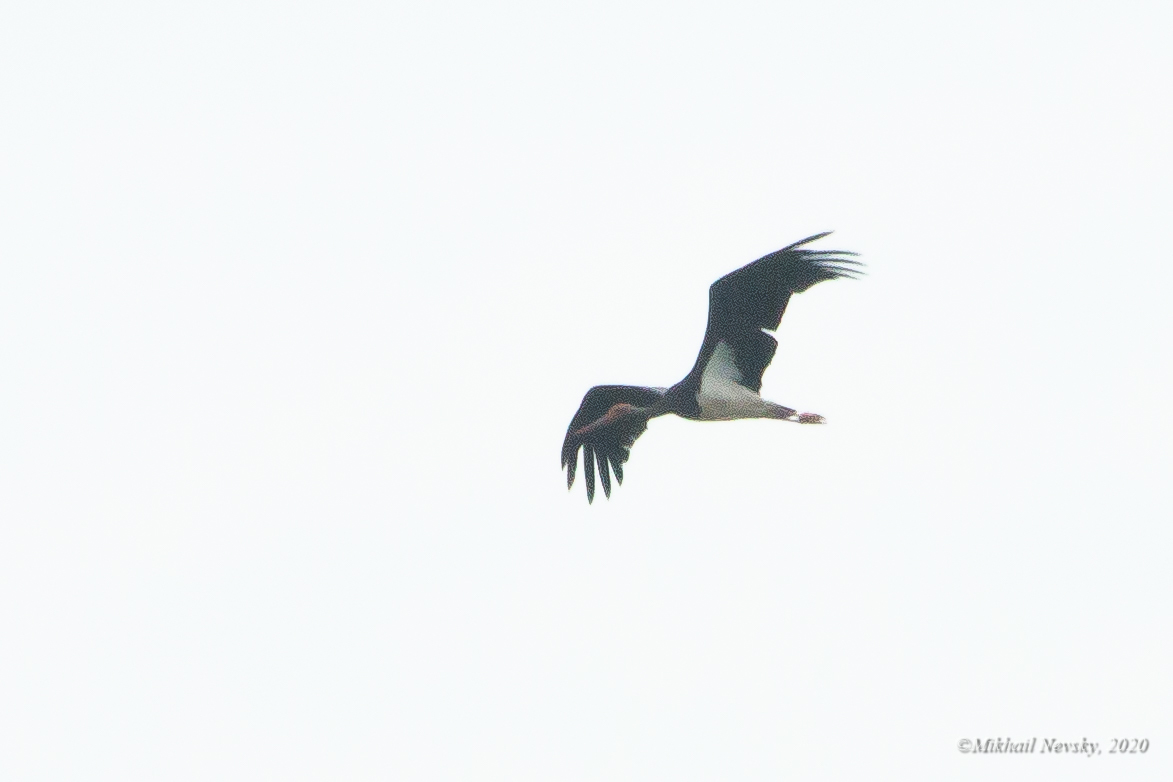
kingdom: Animalia
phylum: Chordata
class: Aves
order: Ciconiiformes
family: Ciconiidae
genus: Ciconia
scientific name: Ciconia nigra
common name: Black stork
